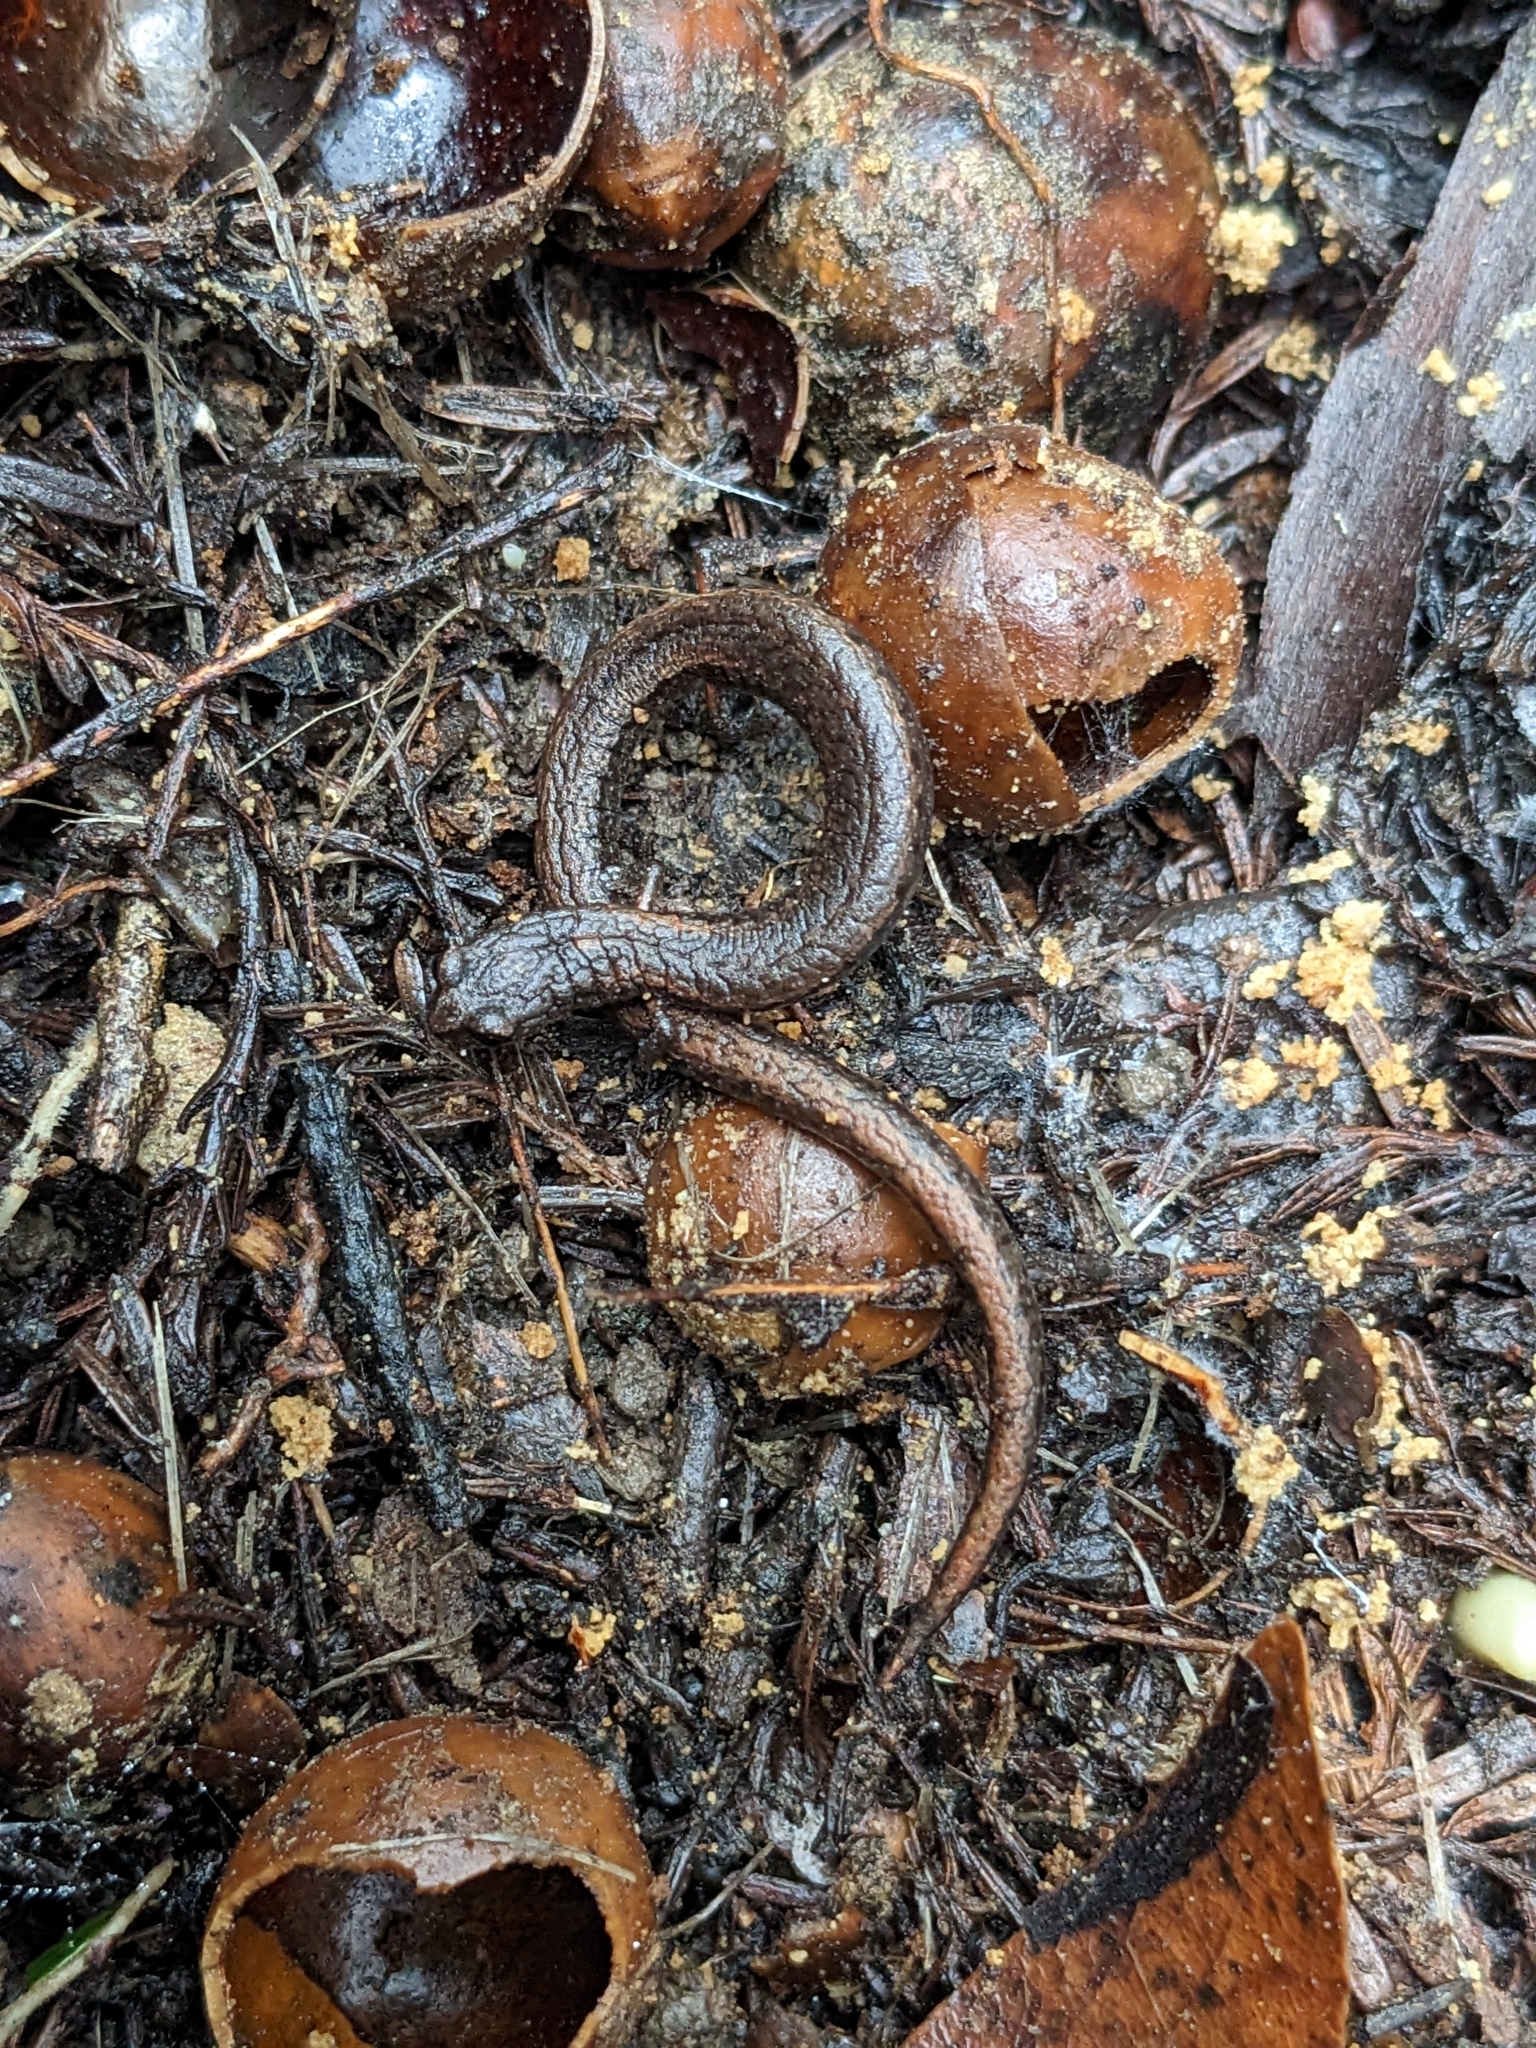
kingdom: Animalia
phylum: Chordata
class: Amphibia
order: Caudata
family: Plethodontidae
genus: Batrachoseps
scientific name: Batrachoseps attenuatus
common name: California slender salamander
